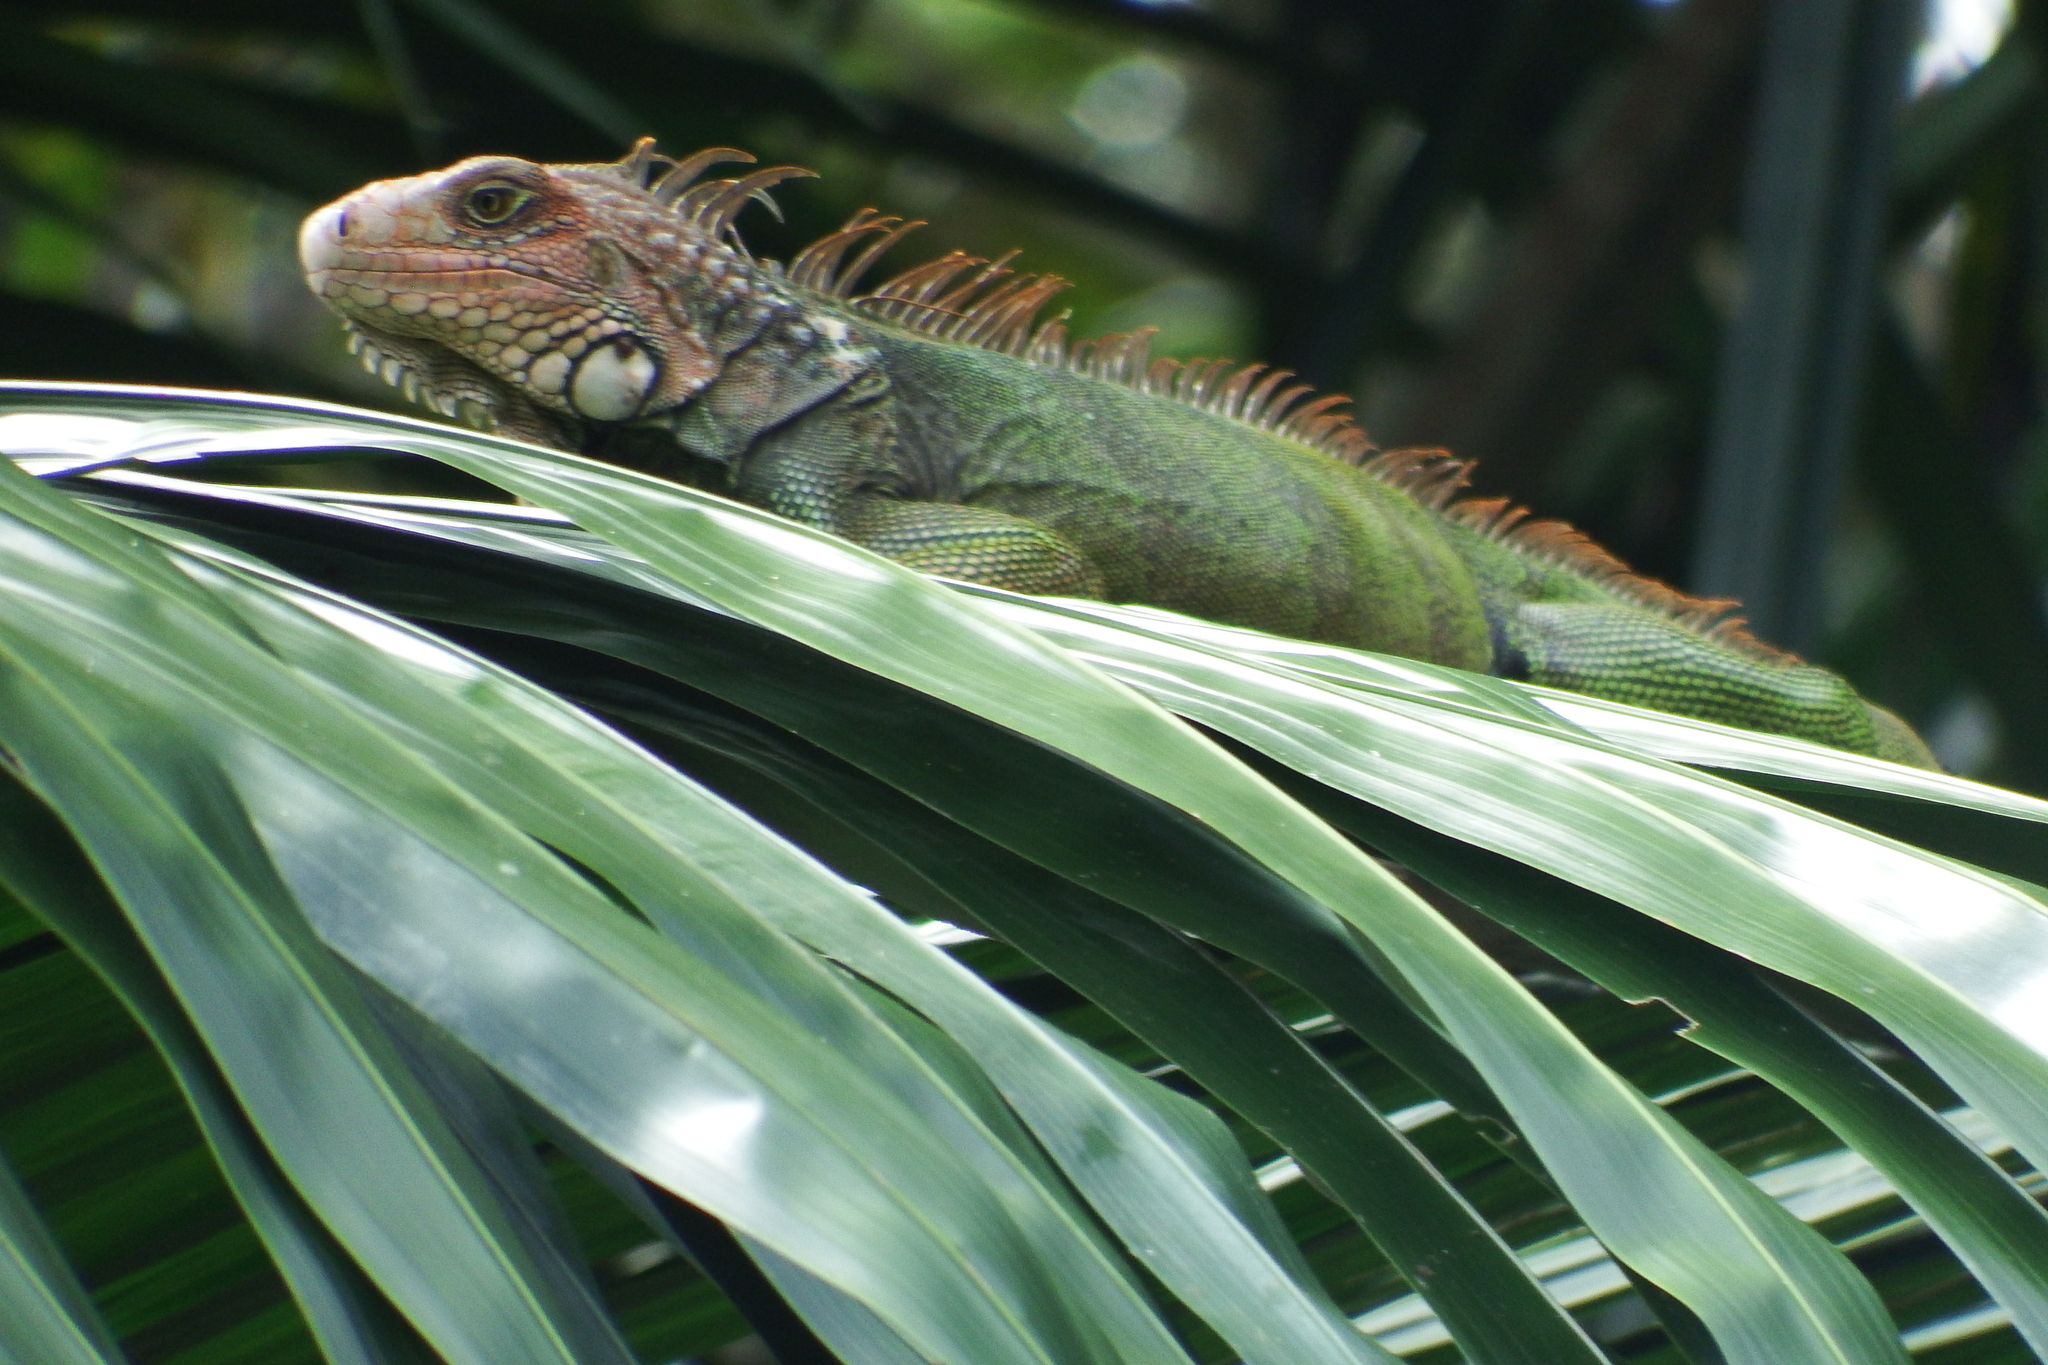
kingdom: Animalia
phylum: Chordata
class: Squamata
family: Iguanidae
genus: Iguana
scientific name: Iguana iguana
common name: Green iguana
